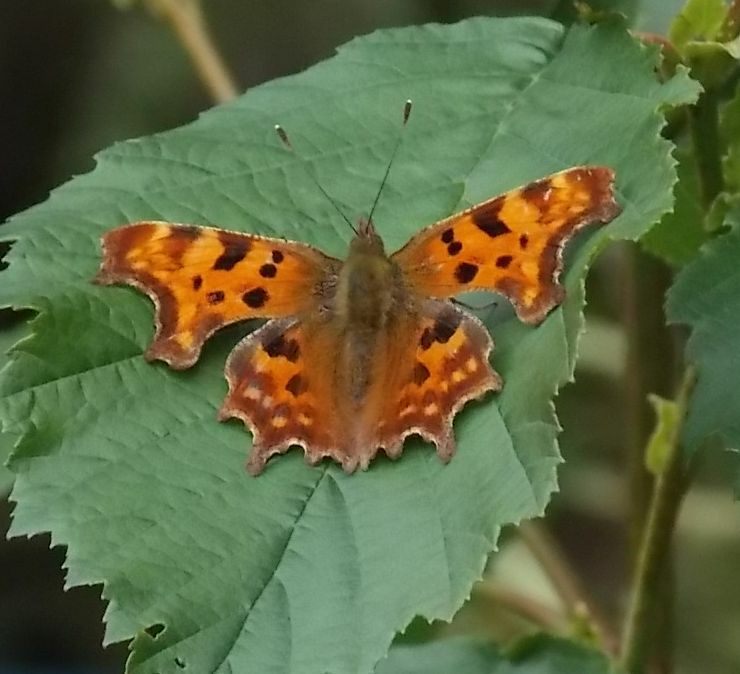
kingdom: Animalia
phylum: Arthropoda
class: Insecta
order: Lepidoptera
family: Nymphalidae
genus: Polygonia
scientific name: Polygonia c-album
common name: Comma
